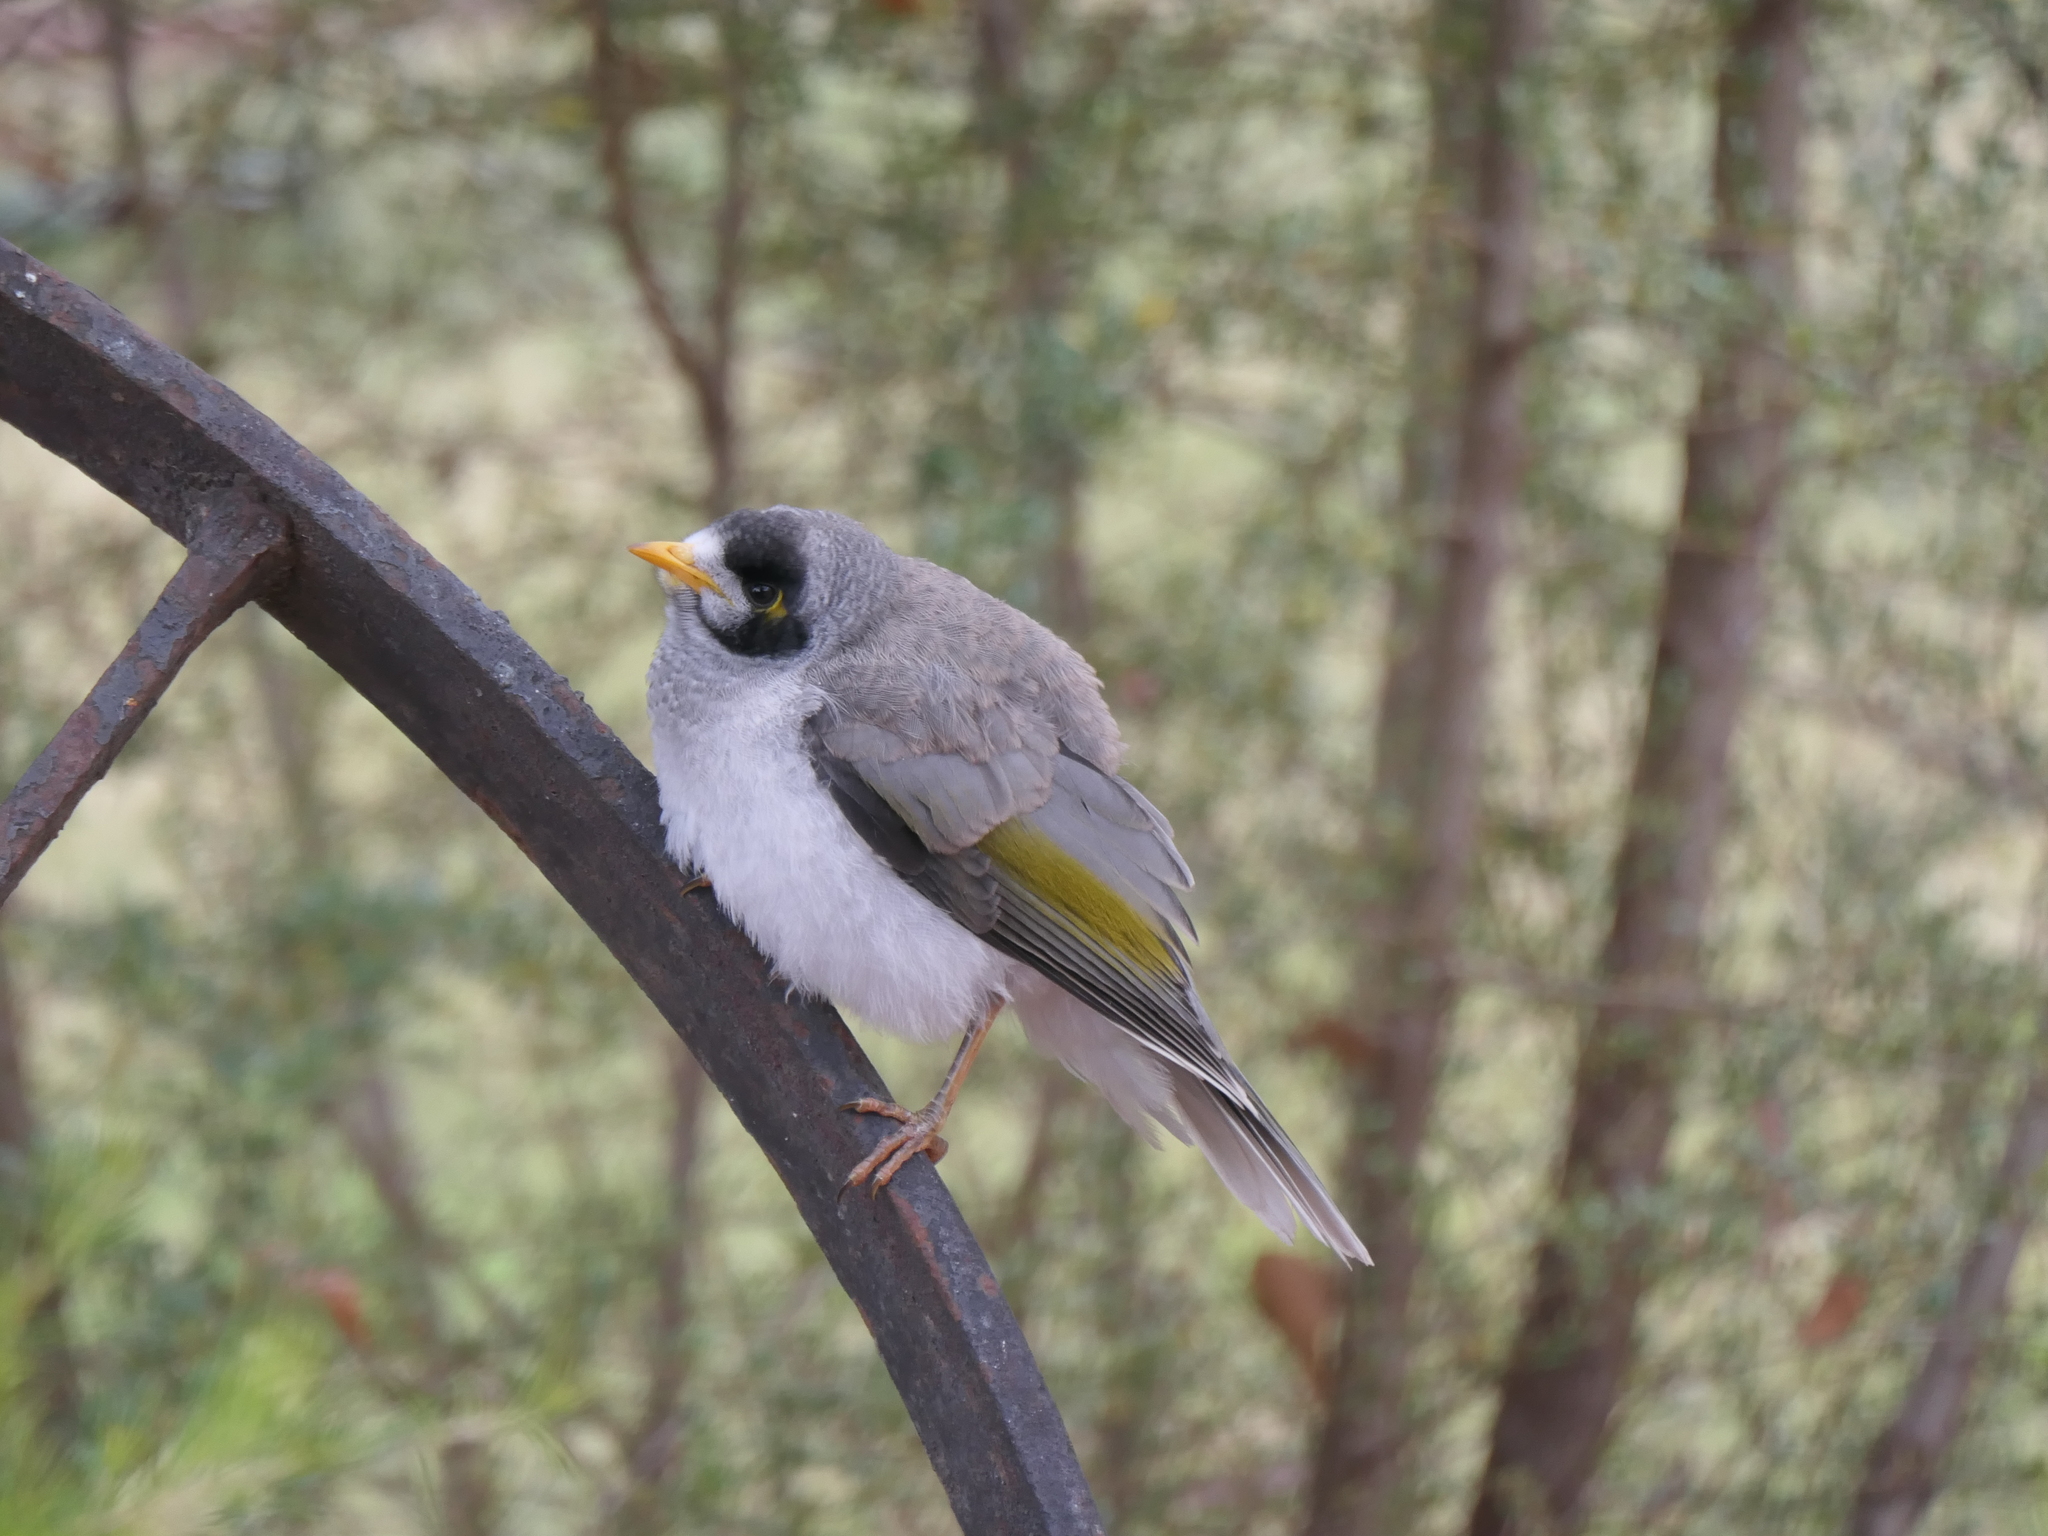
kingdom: Animalia
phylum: Chordata
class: Aves
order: Passeriformes
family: Meliphagidae
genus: Manorina
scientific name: Manorina melanocephala
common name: Noisy miner
